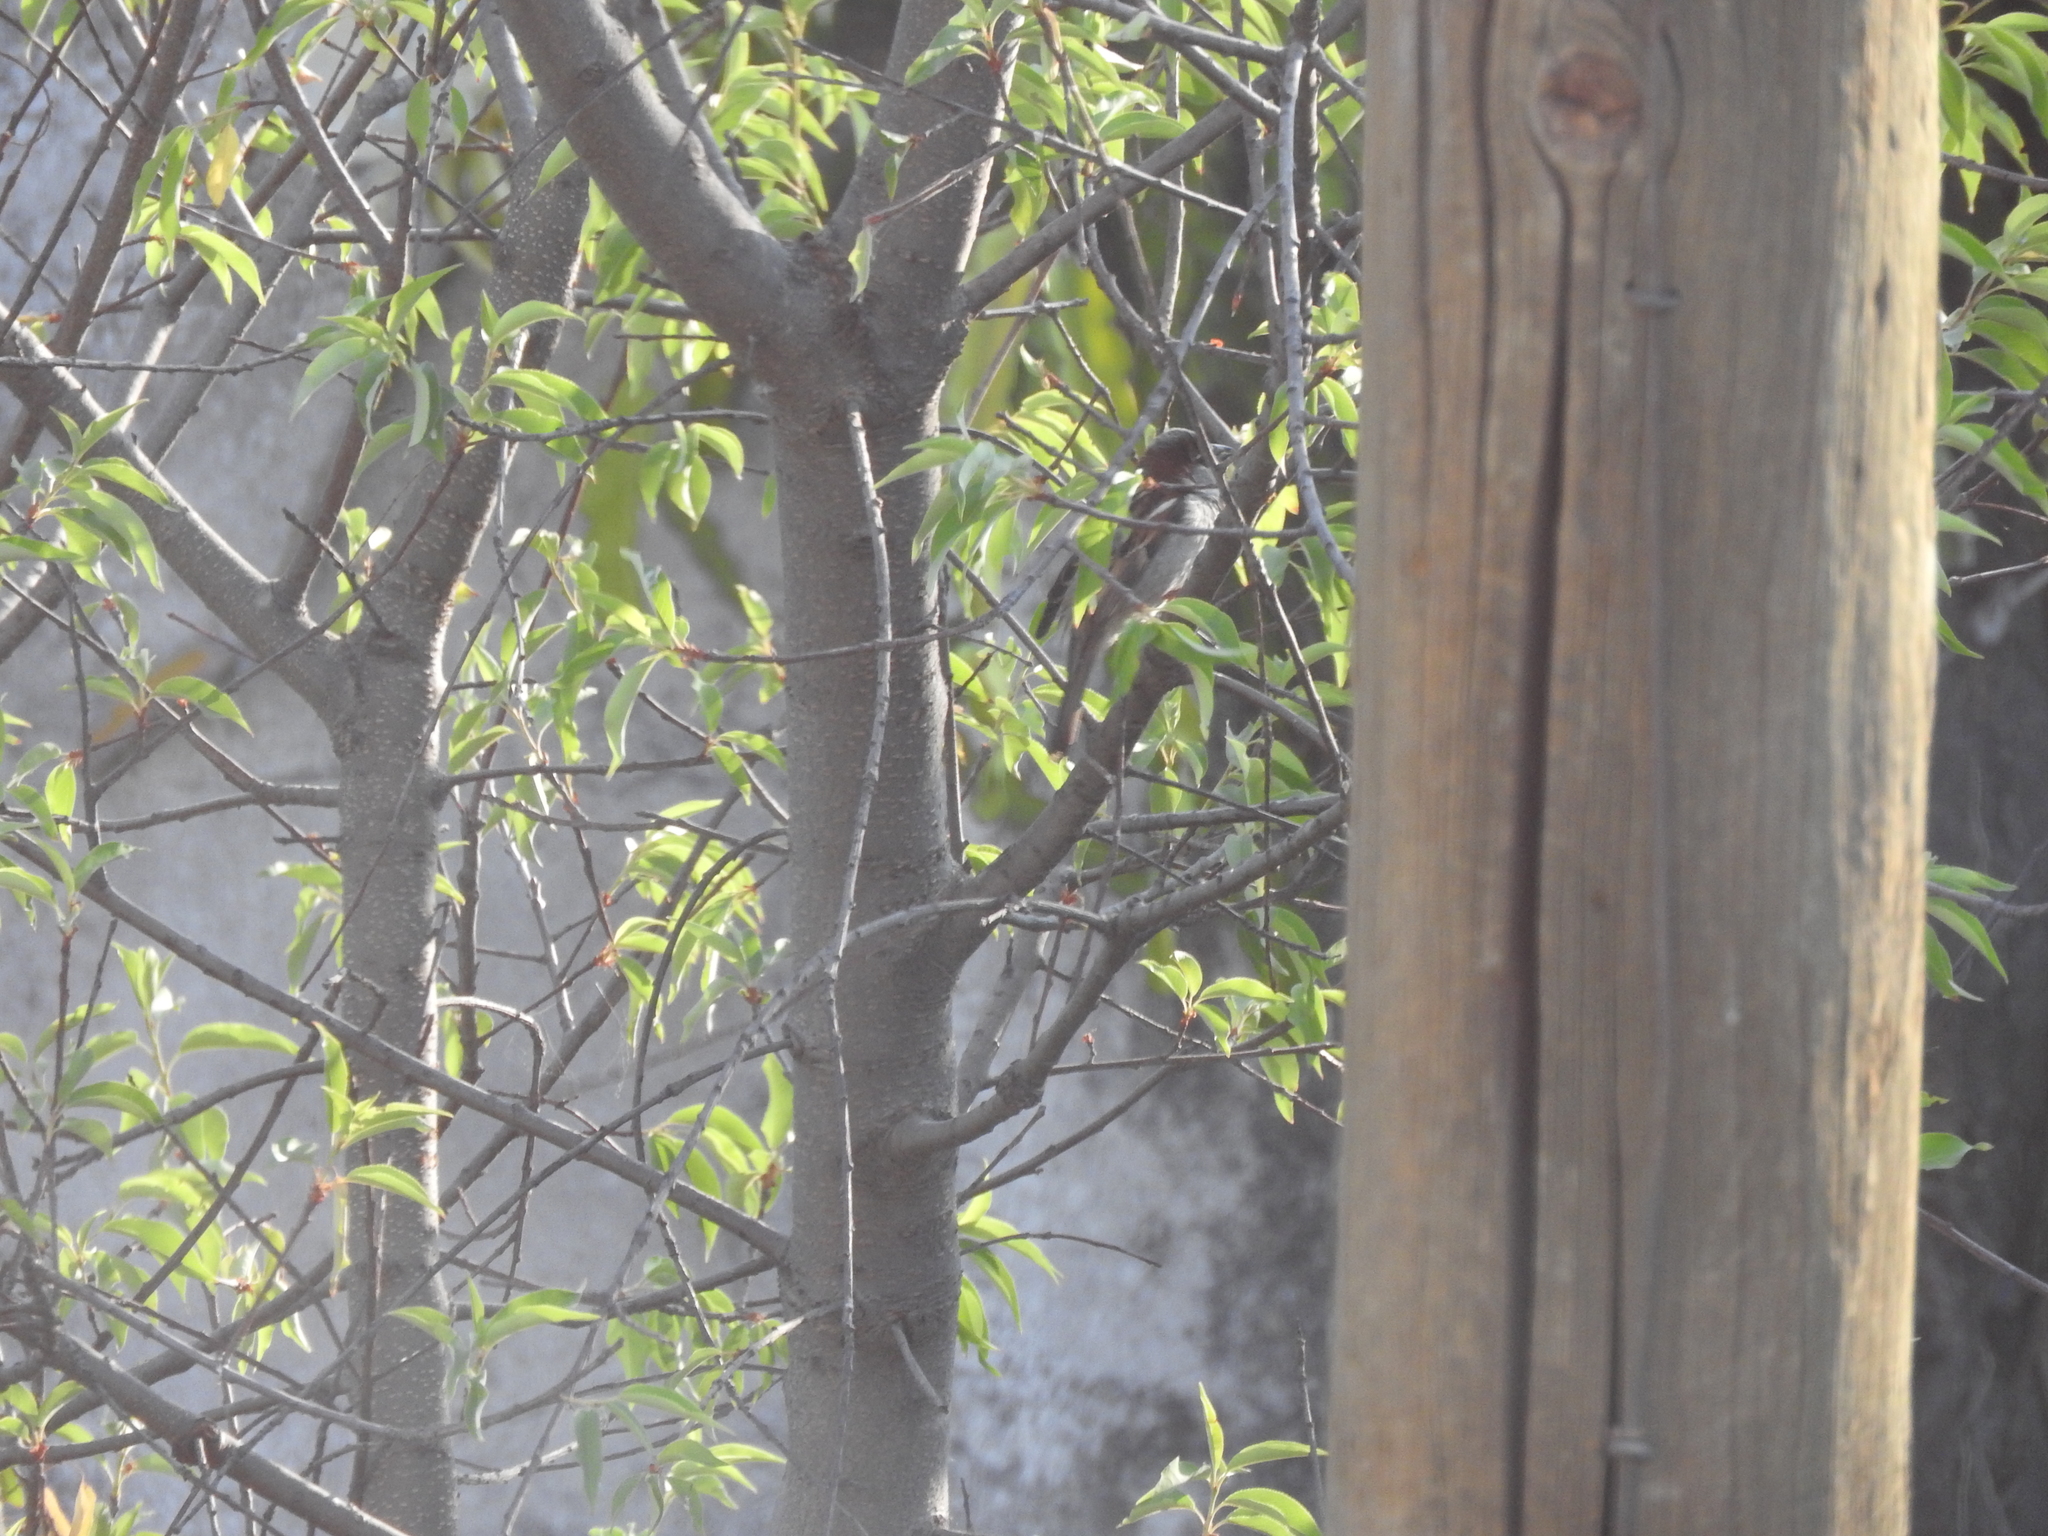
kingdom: Animalia
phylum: Chordata
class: Aves
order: Passeriformes
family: Passeridae
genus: Passer
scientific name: Passer domesticus
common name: House sparrow
